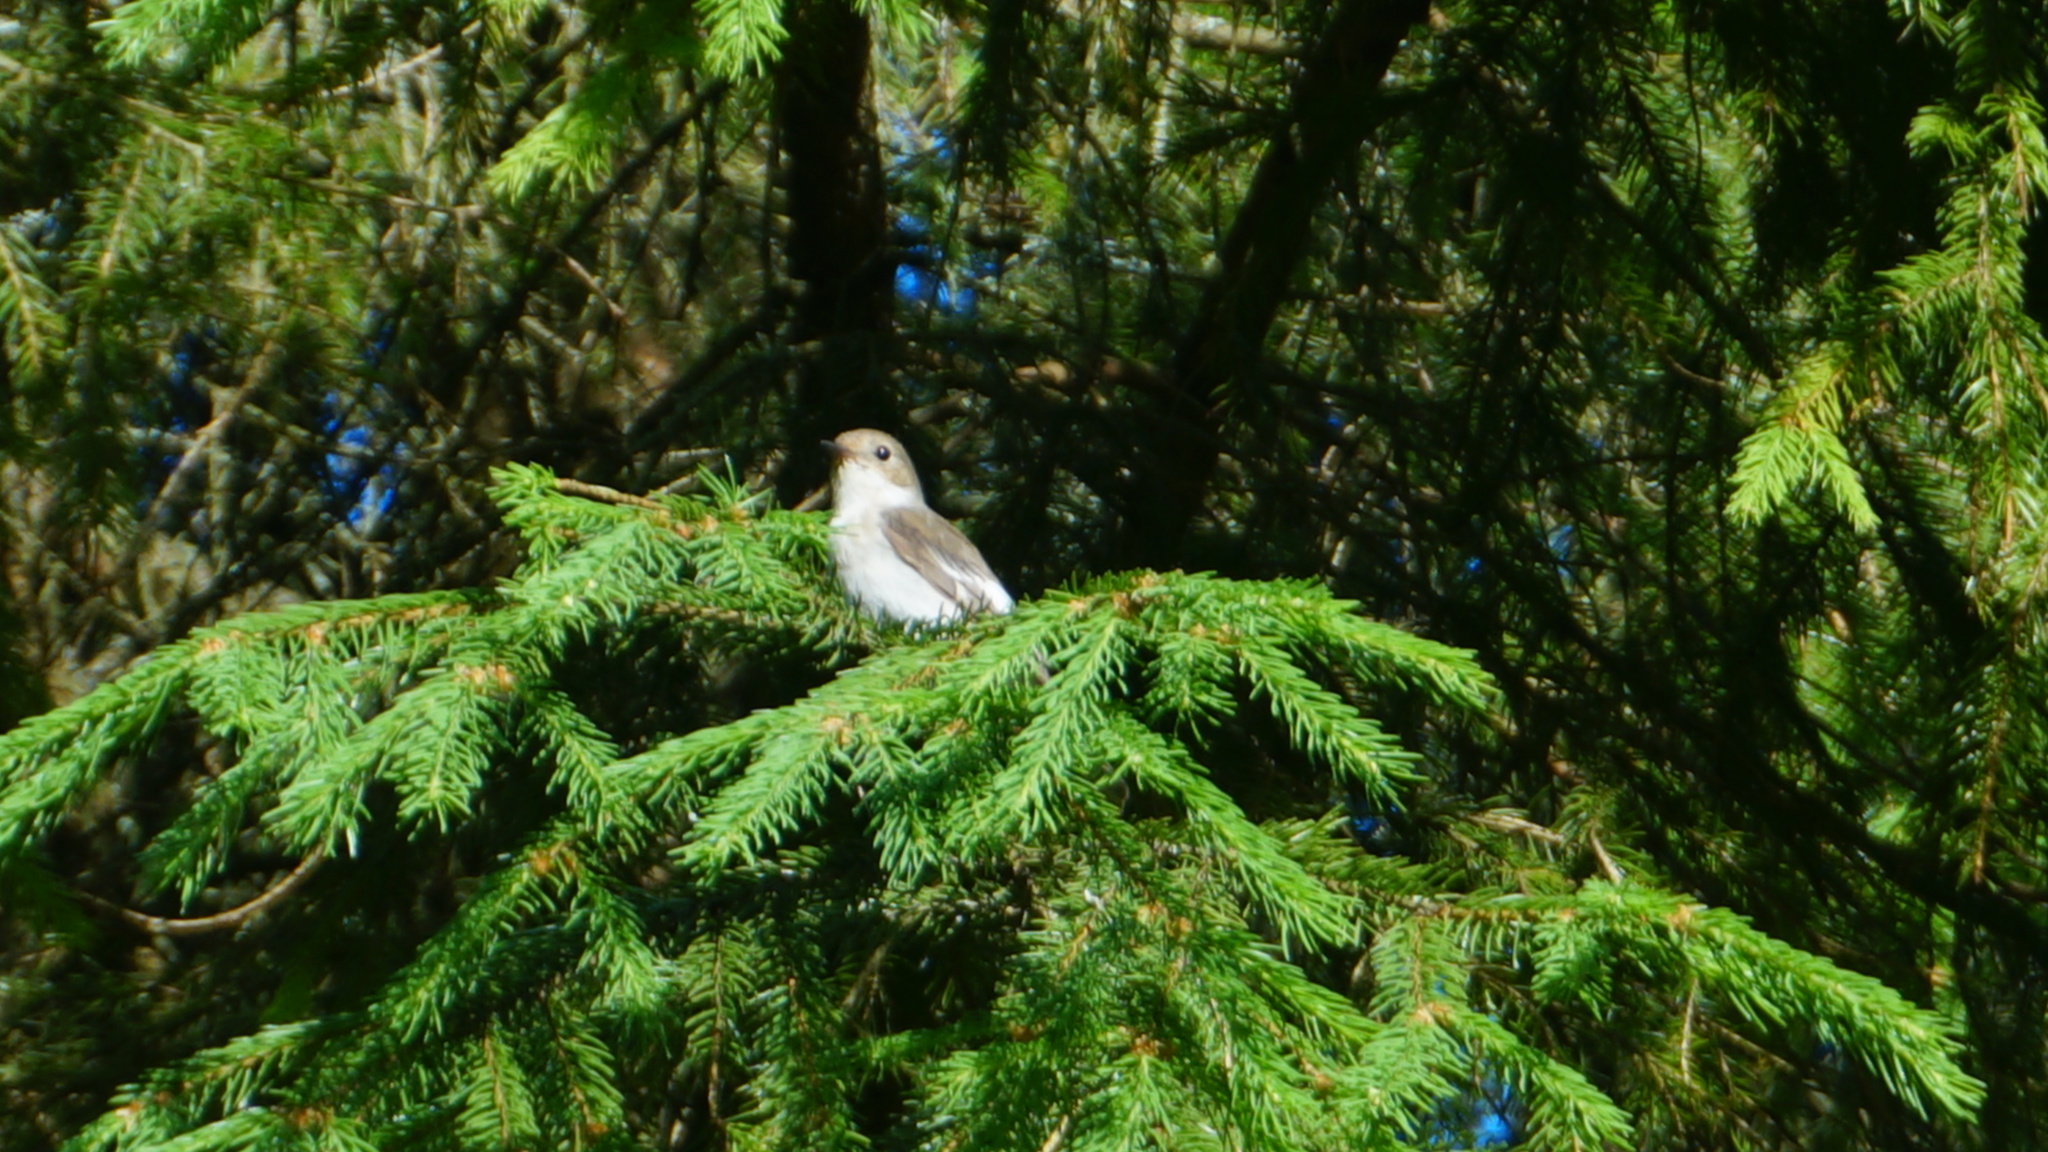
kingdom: Animalia
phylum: Chordata
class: Aves
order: Passeriformes
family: Muscicapidae
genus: Ficedula
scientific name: Ficedula hypoleuca
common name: European pied flycatcher
